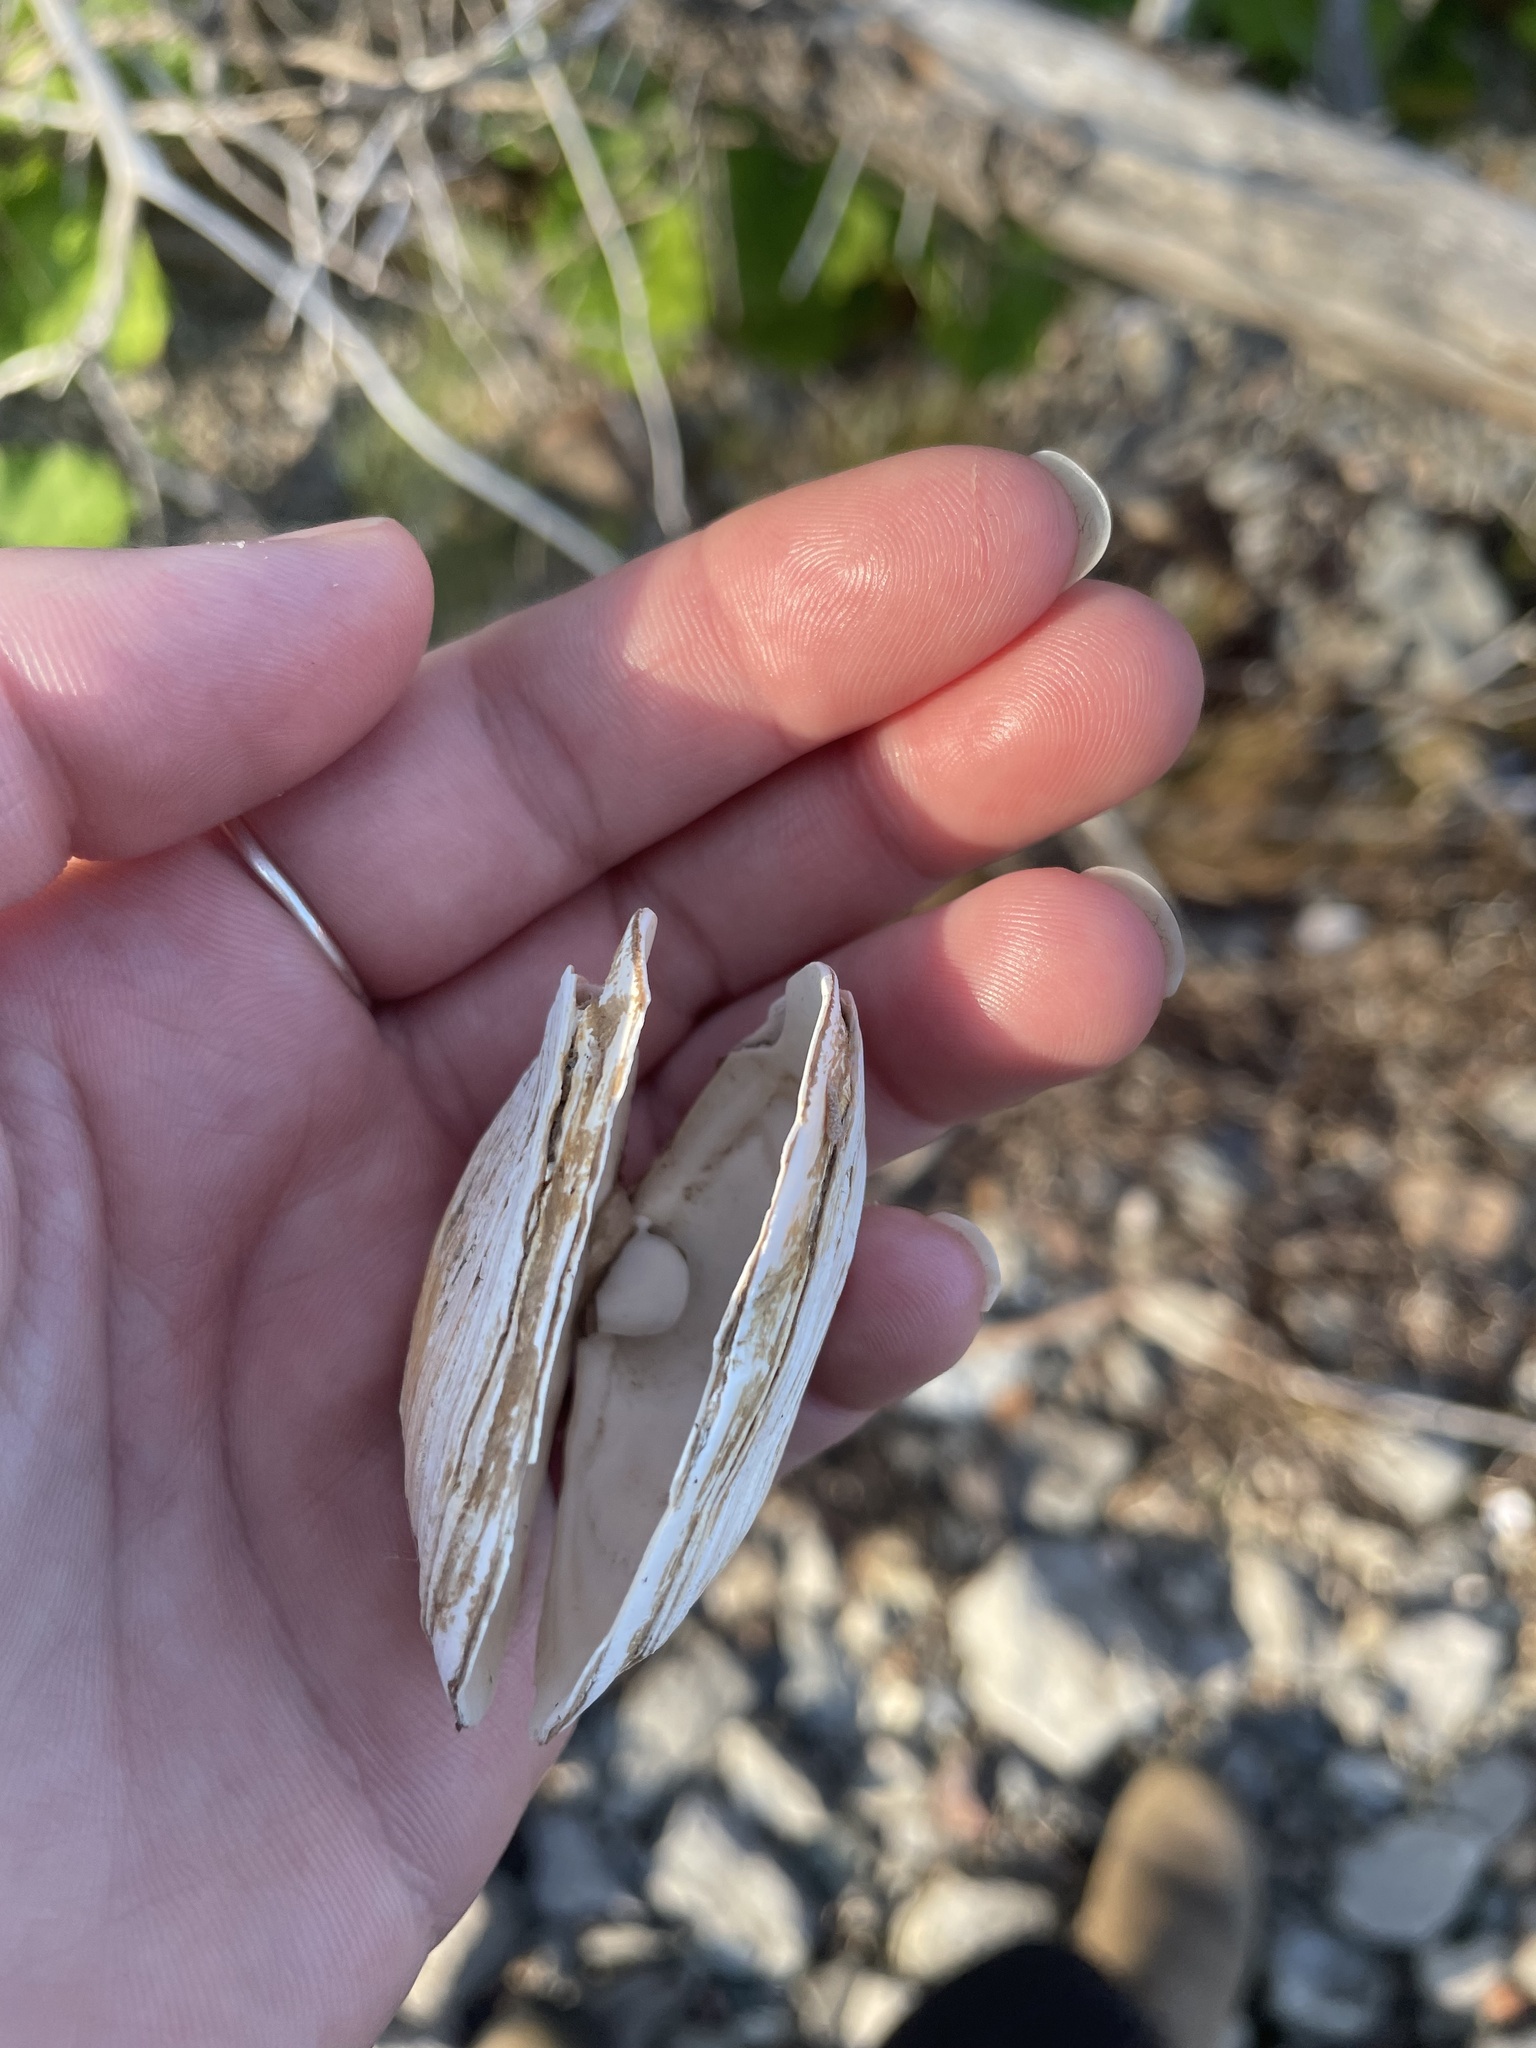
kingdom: Animalia
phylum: Mollusca
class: Bivalvia
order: Myida
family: Myidae
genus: Mya
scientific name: Mya arenaria
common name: Soft-shelled clam
